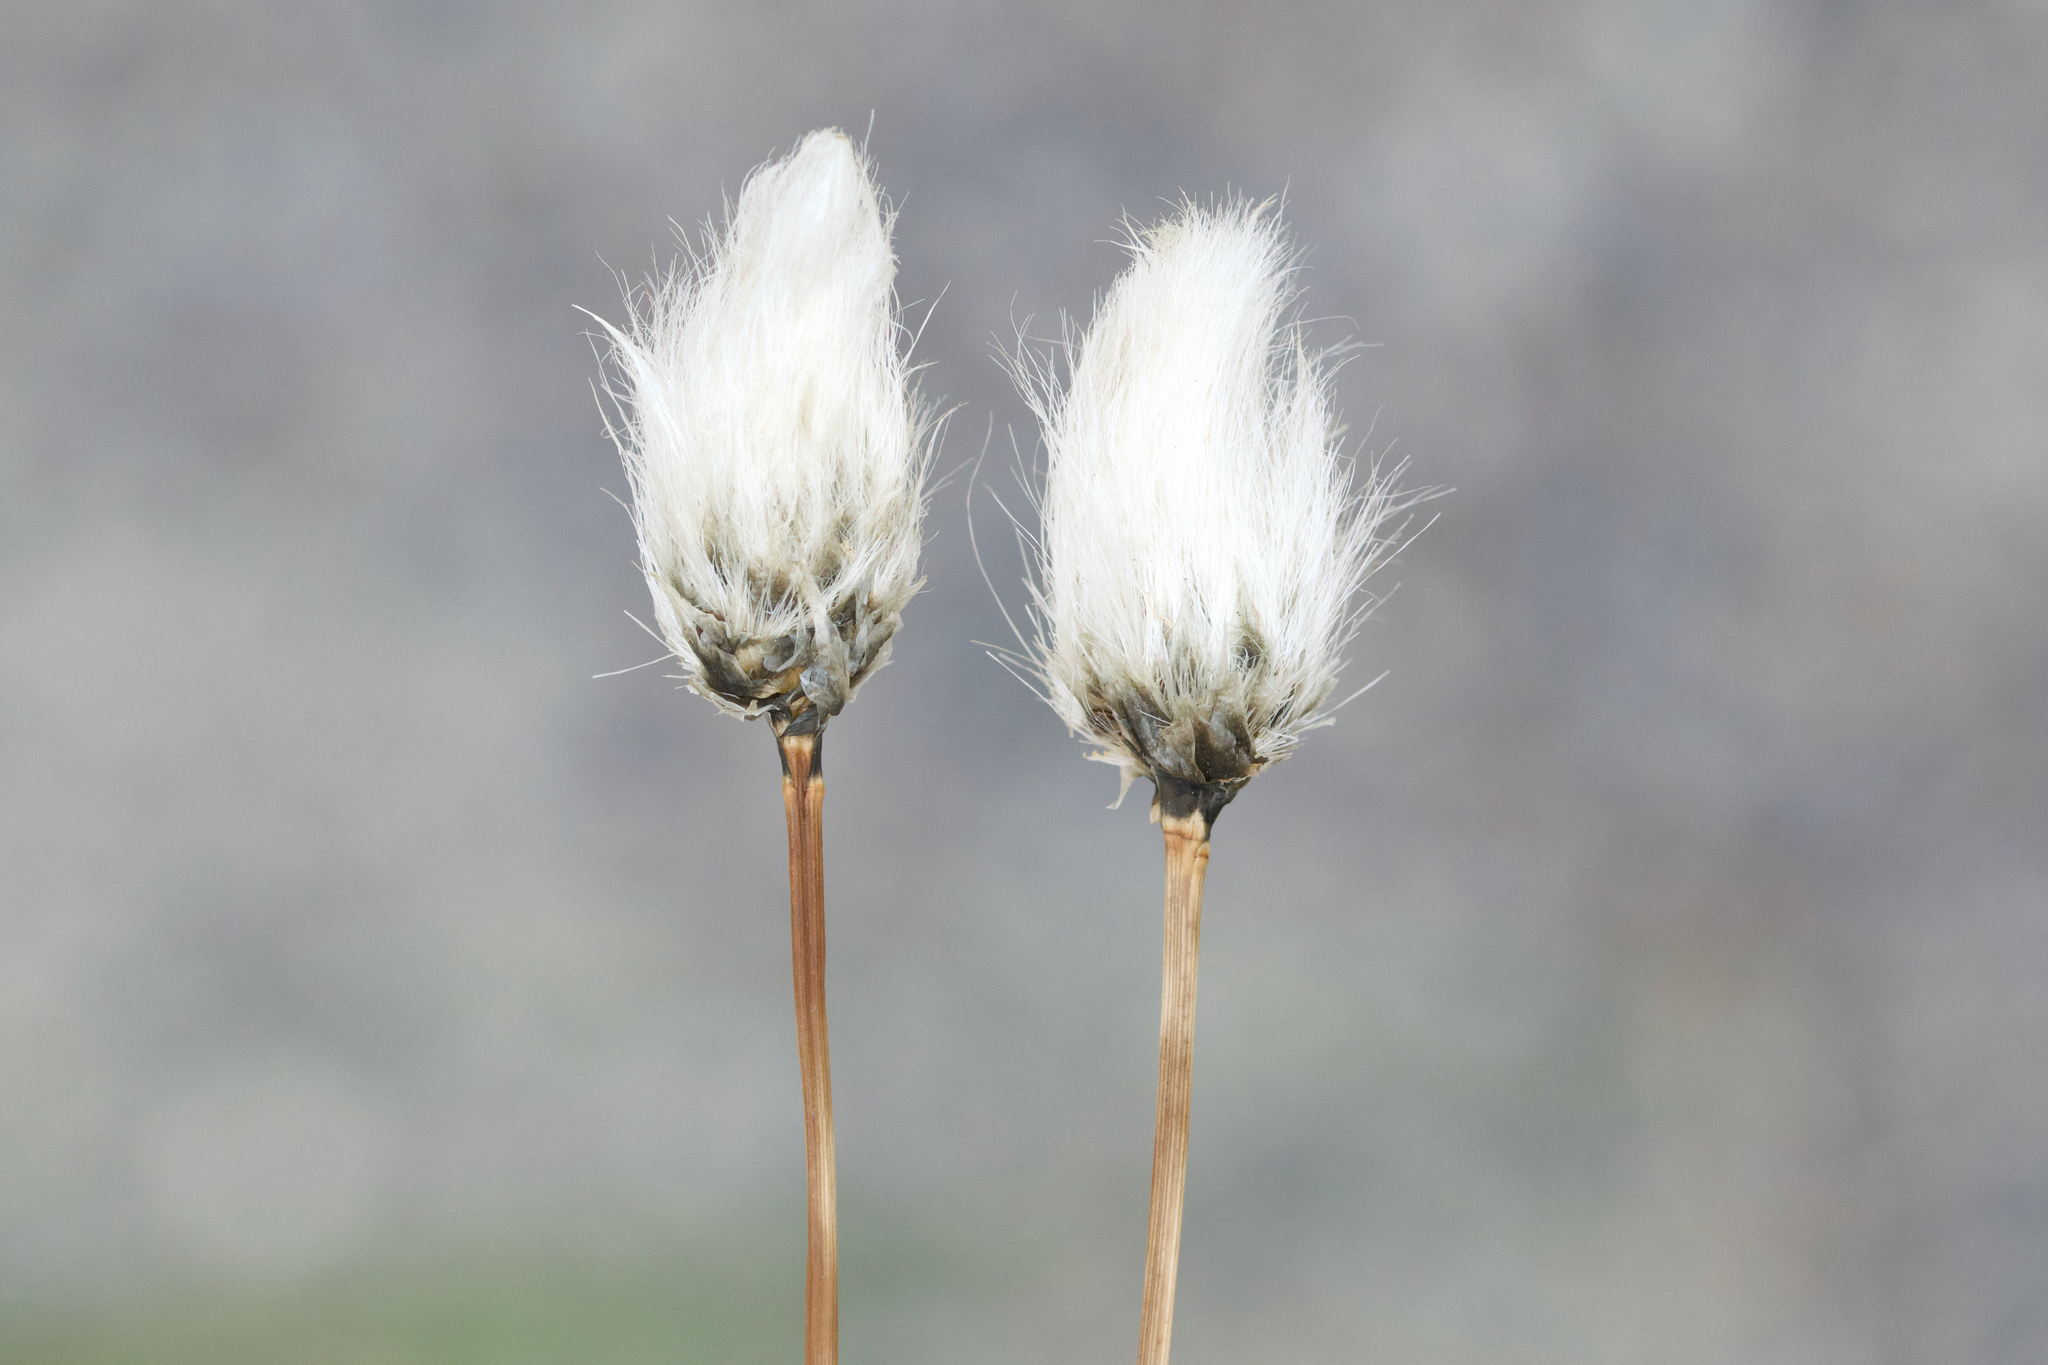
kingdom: Plantae
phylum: Tracheophyta
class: Liliopsida
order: Poales
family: Cyperaceae
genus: Eriophorum
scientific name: Eriophorum vaginatum
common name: Hare's-tail cottongrass
